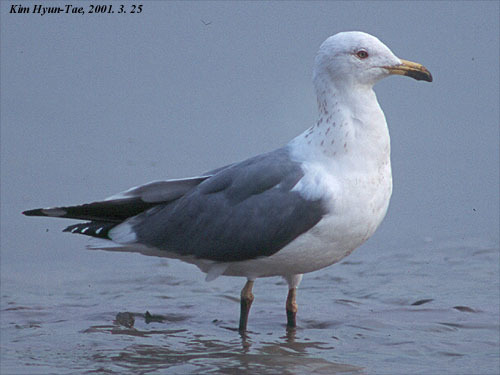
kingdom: Animalia
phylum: Chordata
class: Aves
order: Charadriiformes
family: Laridae
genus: Larus
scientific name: Larus fuscus
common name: Lesser black-backed gull
